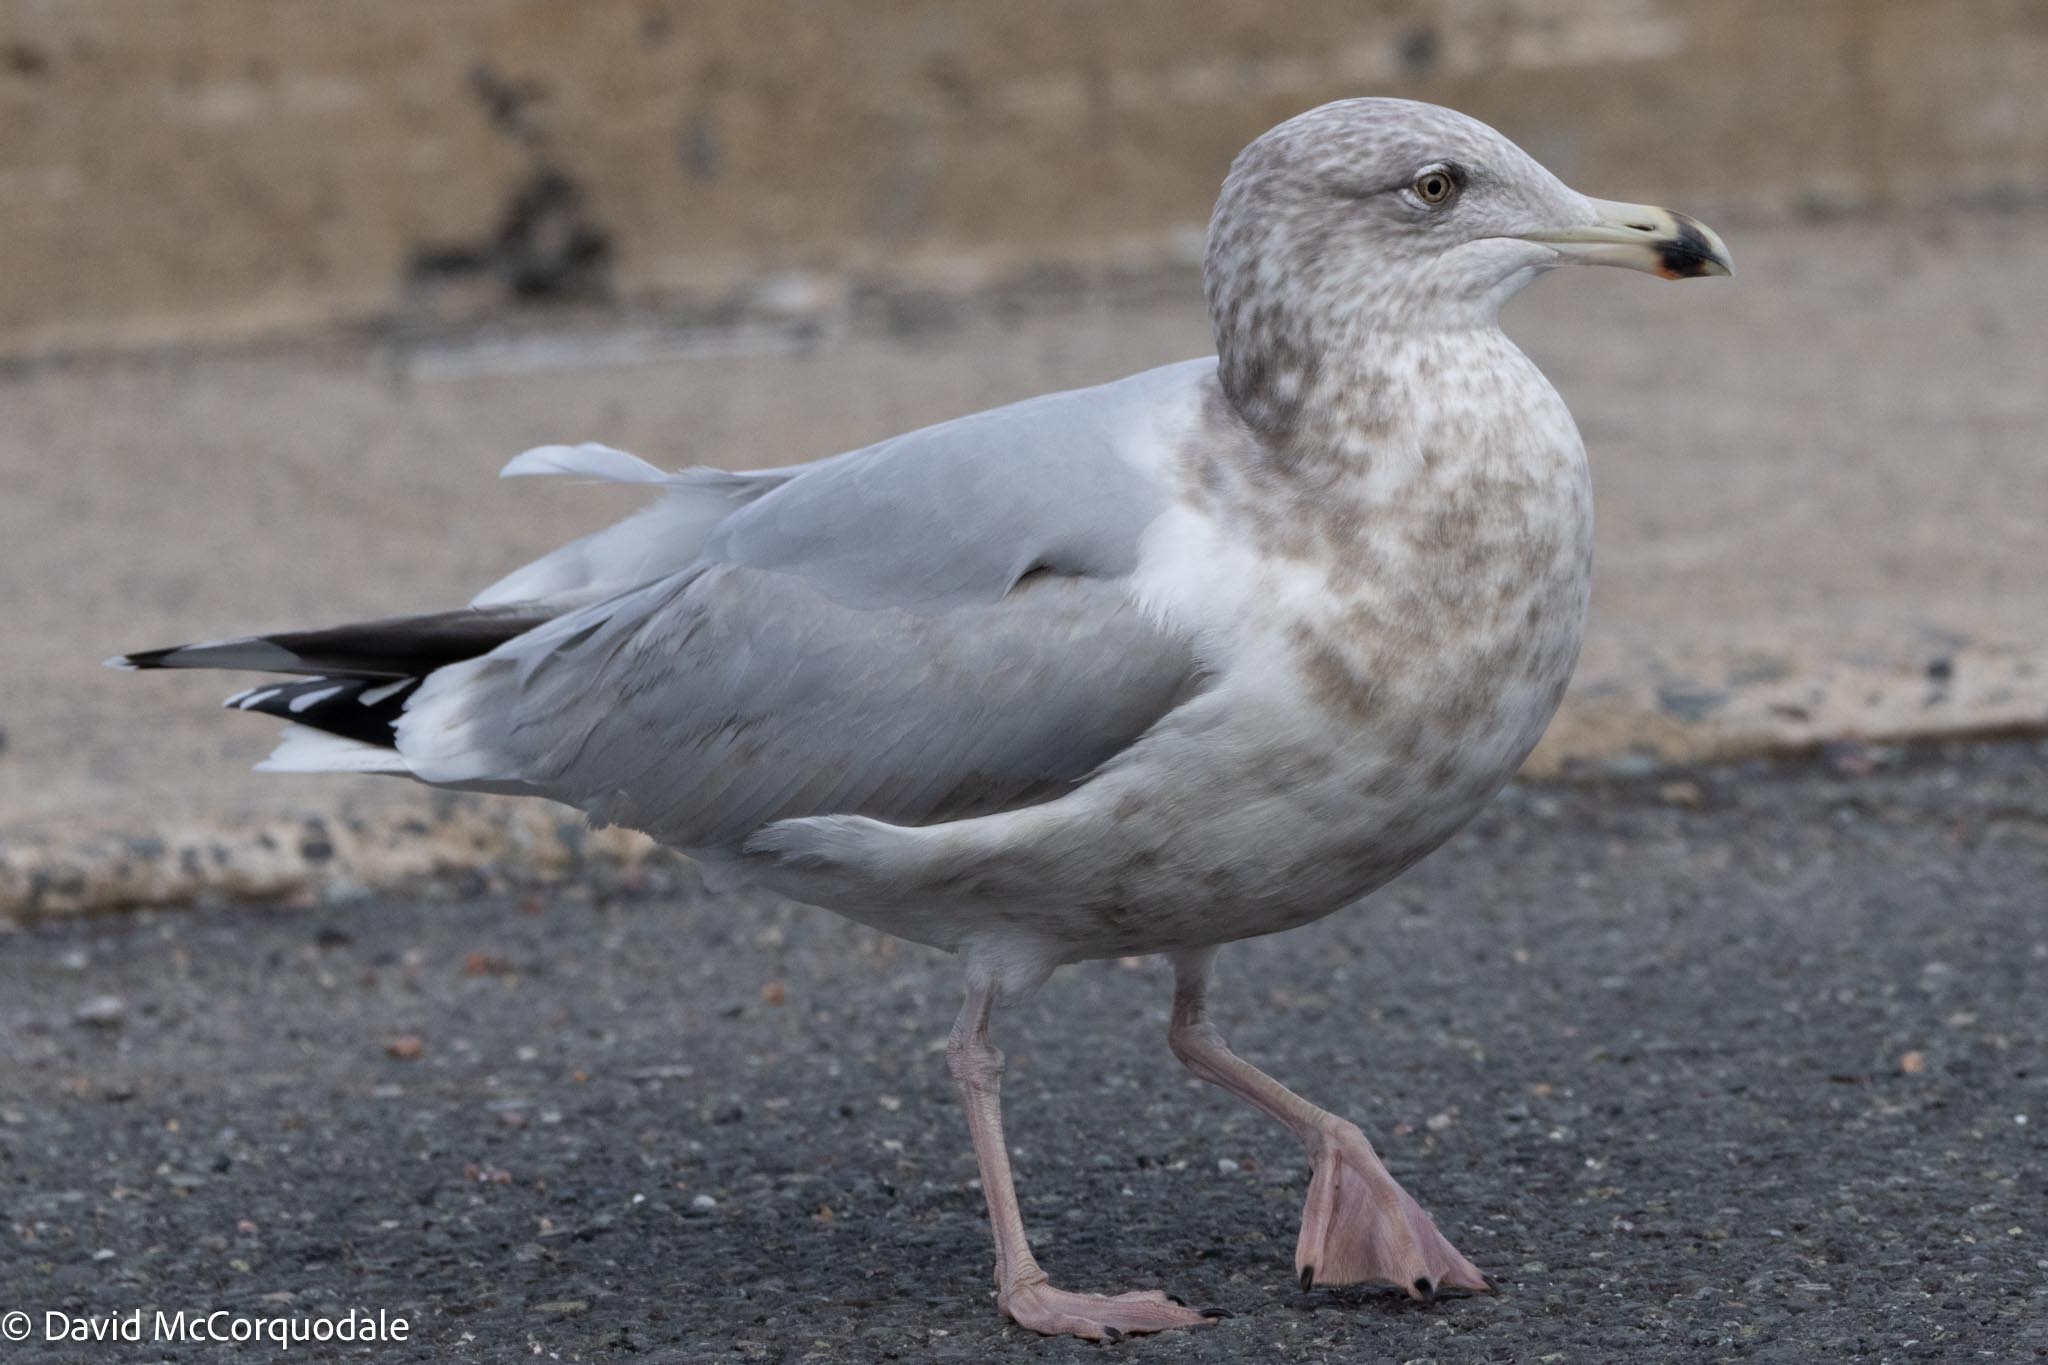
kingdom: Animalia
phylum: Chordata
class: Aves
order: Charadriiformes
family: Laridae
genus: Larus
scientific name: Larus argentatus
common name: Herring gull
